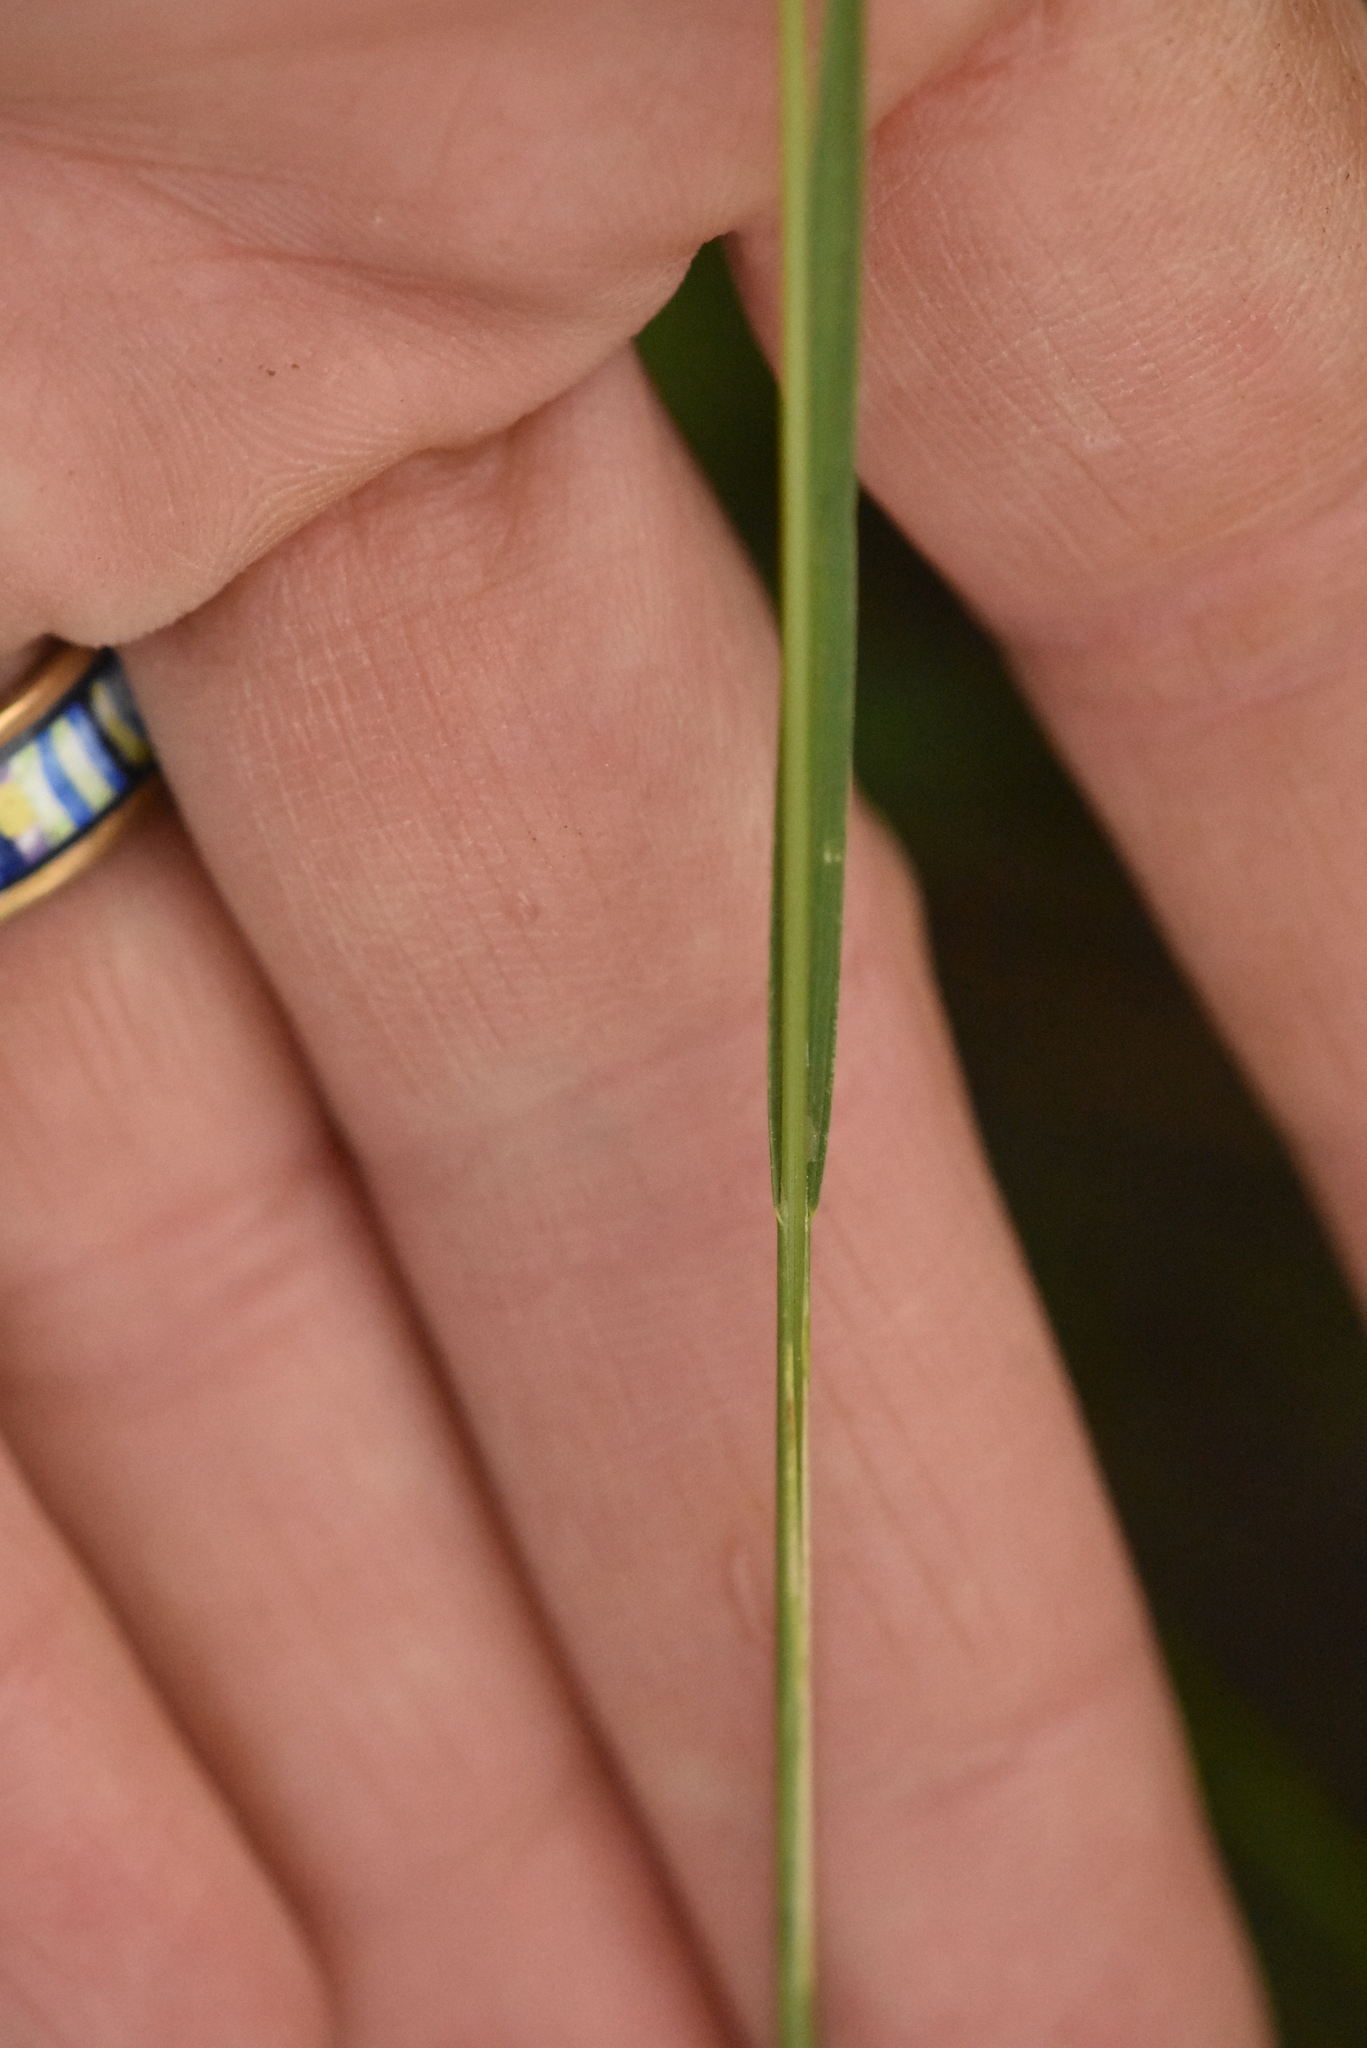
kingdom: Plantae
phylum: Tracheophyta
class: Liliopsida
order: Poales
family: Poaceae
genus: Poa
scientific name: Poa trivialis
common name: Rough bluegrass
